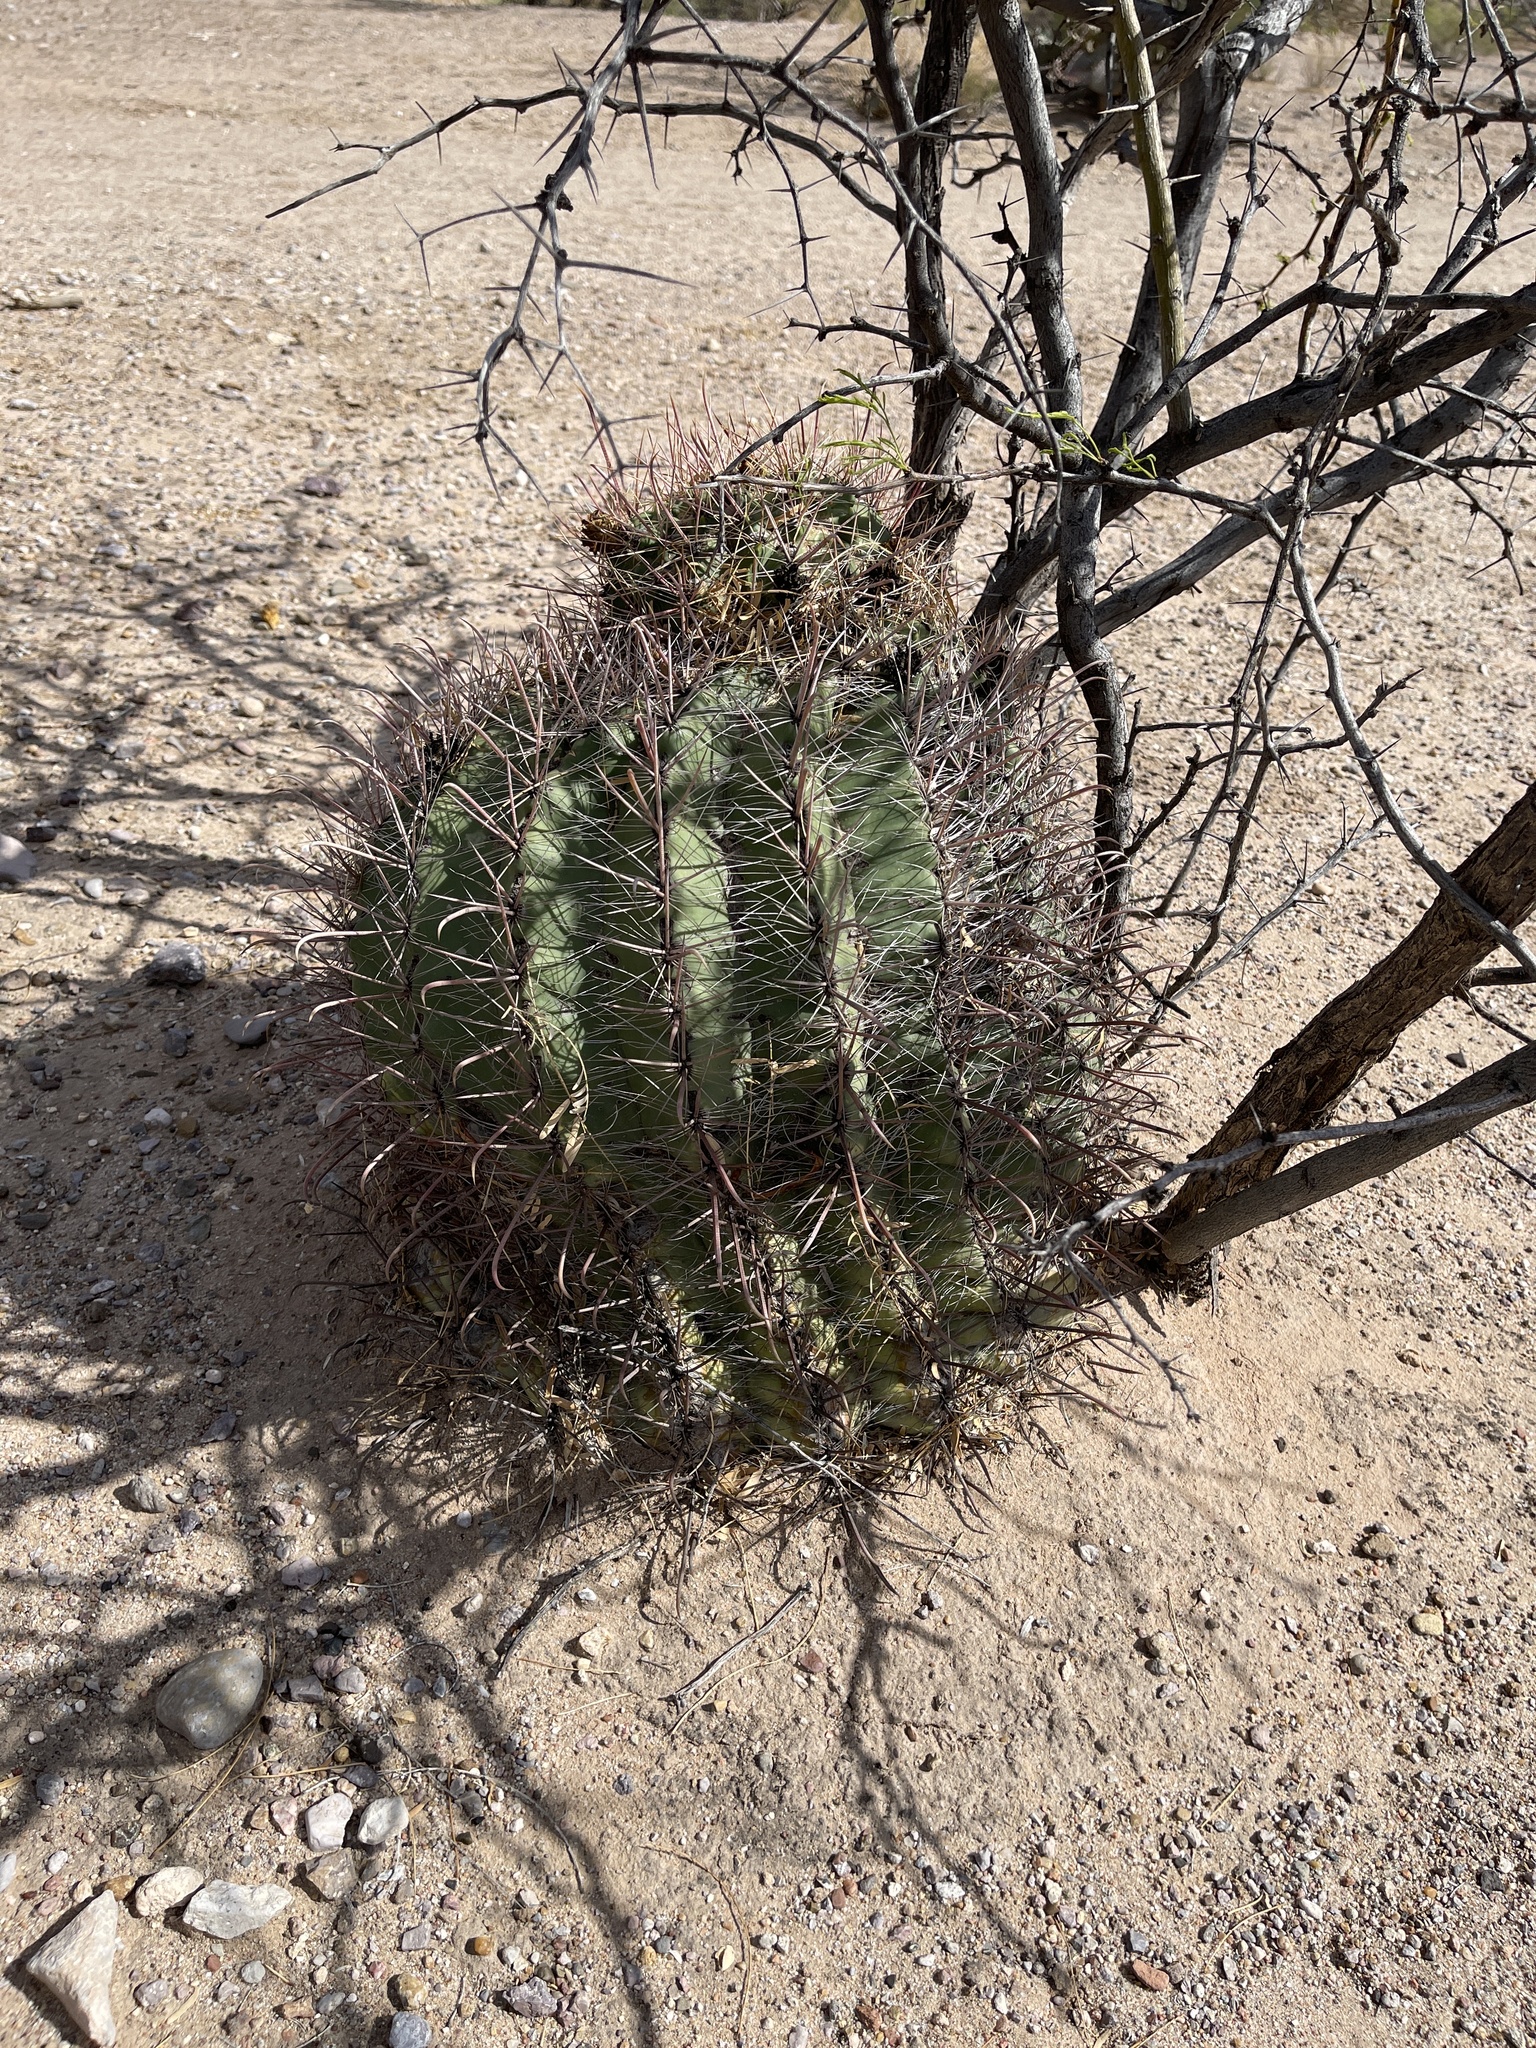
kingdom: Plantae
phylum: Tracheophyta
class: Magnoliopsida
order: Caryophyllales
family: Cactaceae
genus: Ferocactus
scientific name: Ferocactus wislizeni
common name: Candy barrel cactus
